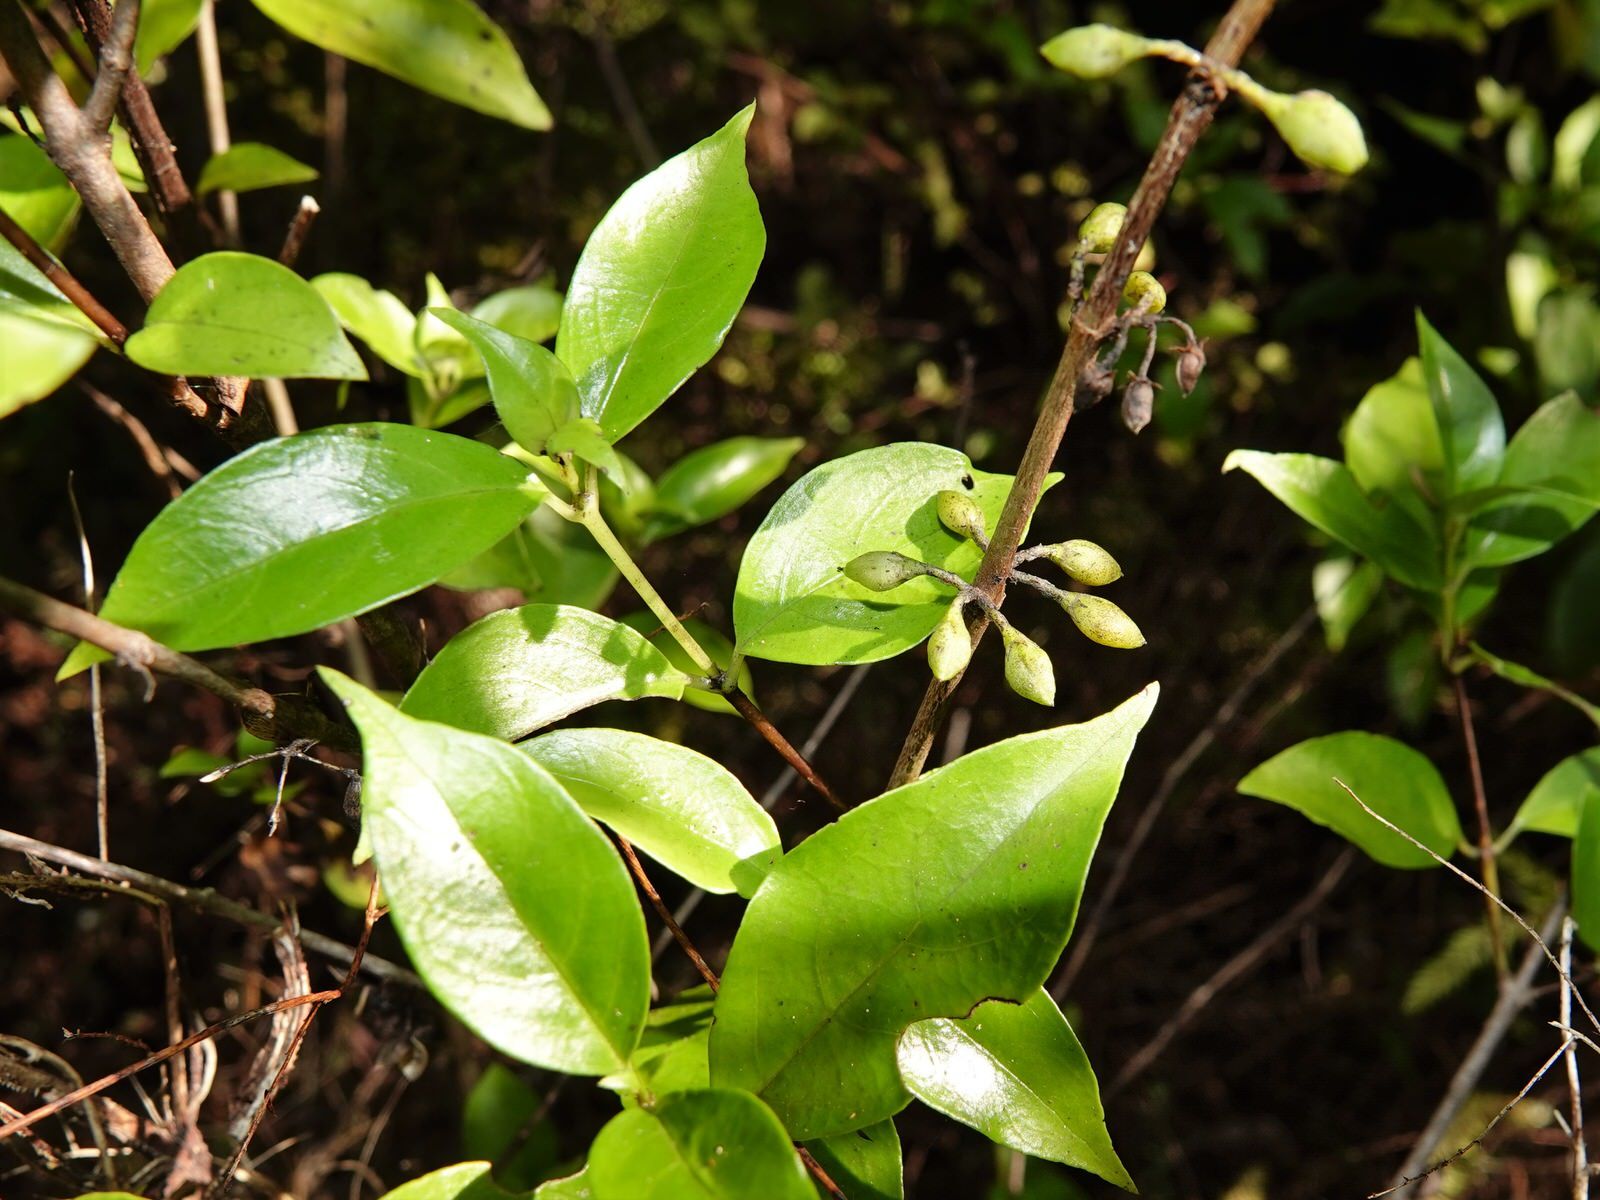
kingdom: Plantae
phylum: Tracheophyta
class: Magnoliopsida
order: Gentianales
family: Loganiaceae
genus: Geniostoma
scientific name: Geniostoma ligustrifolium
